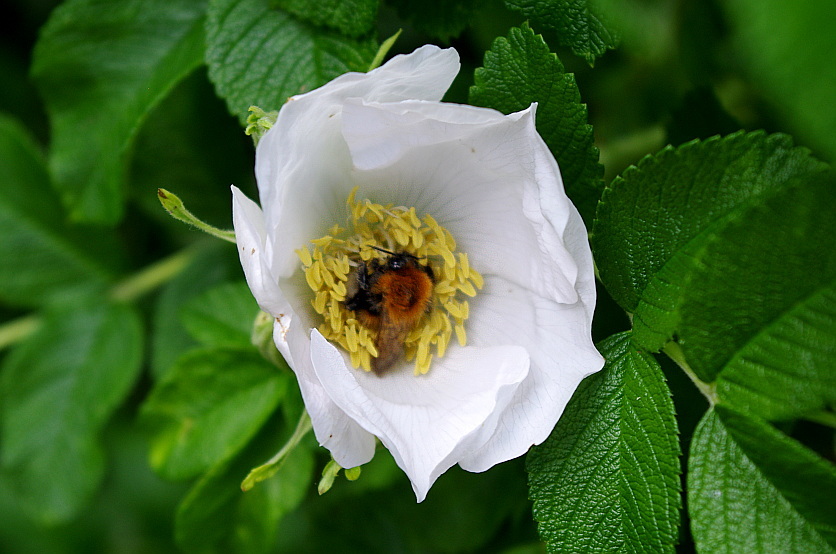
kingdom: Animalia
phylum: Arthropoda
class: Insecta
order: Hymenoptera
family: Apidae
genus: Bombus
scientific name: Bombus hypnorum
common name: New garden bumblebee
